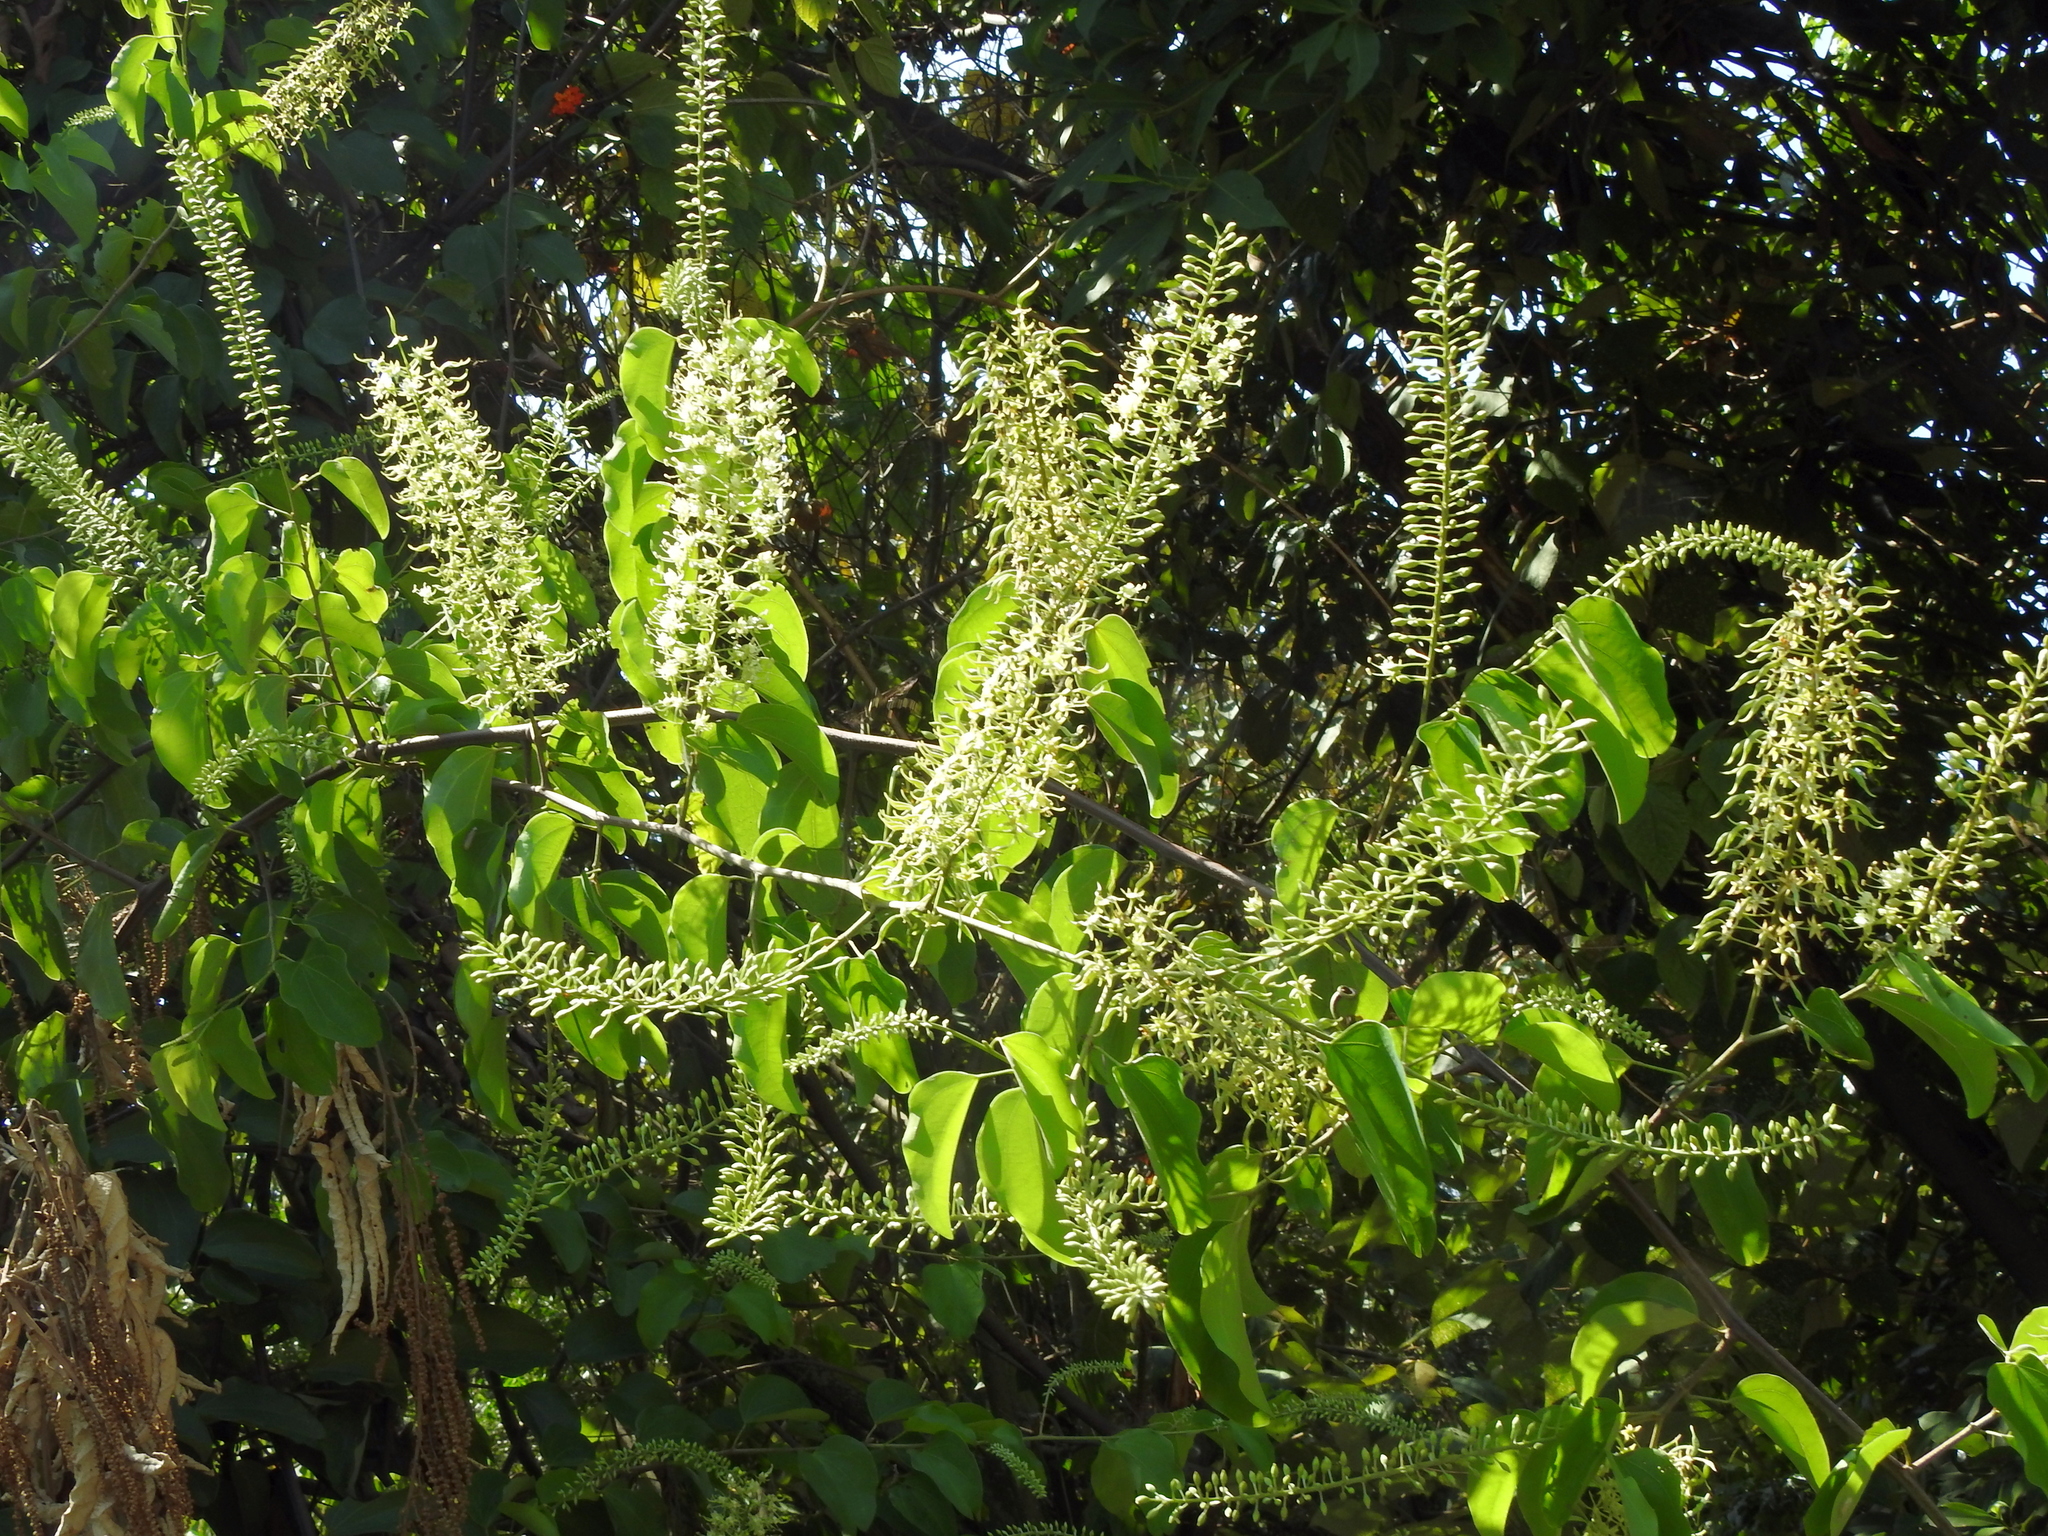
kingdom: Plantae
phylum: Tracheophyta
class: Magnoliopsida
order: Fabales
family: Fabaceae
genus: Phanera
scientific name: Phanera championii
